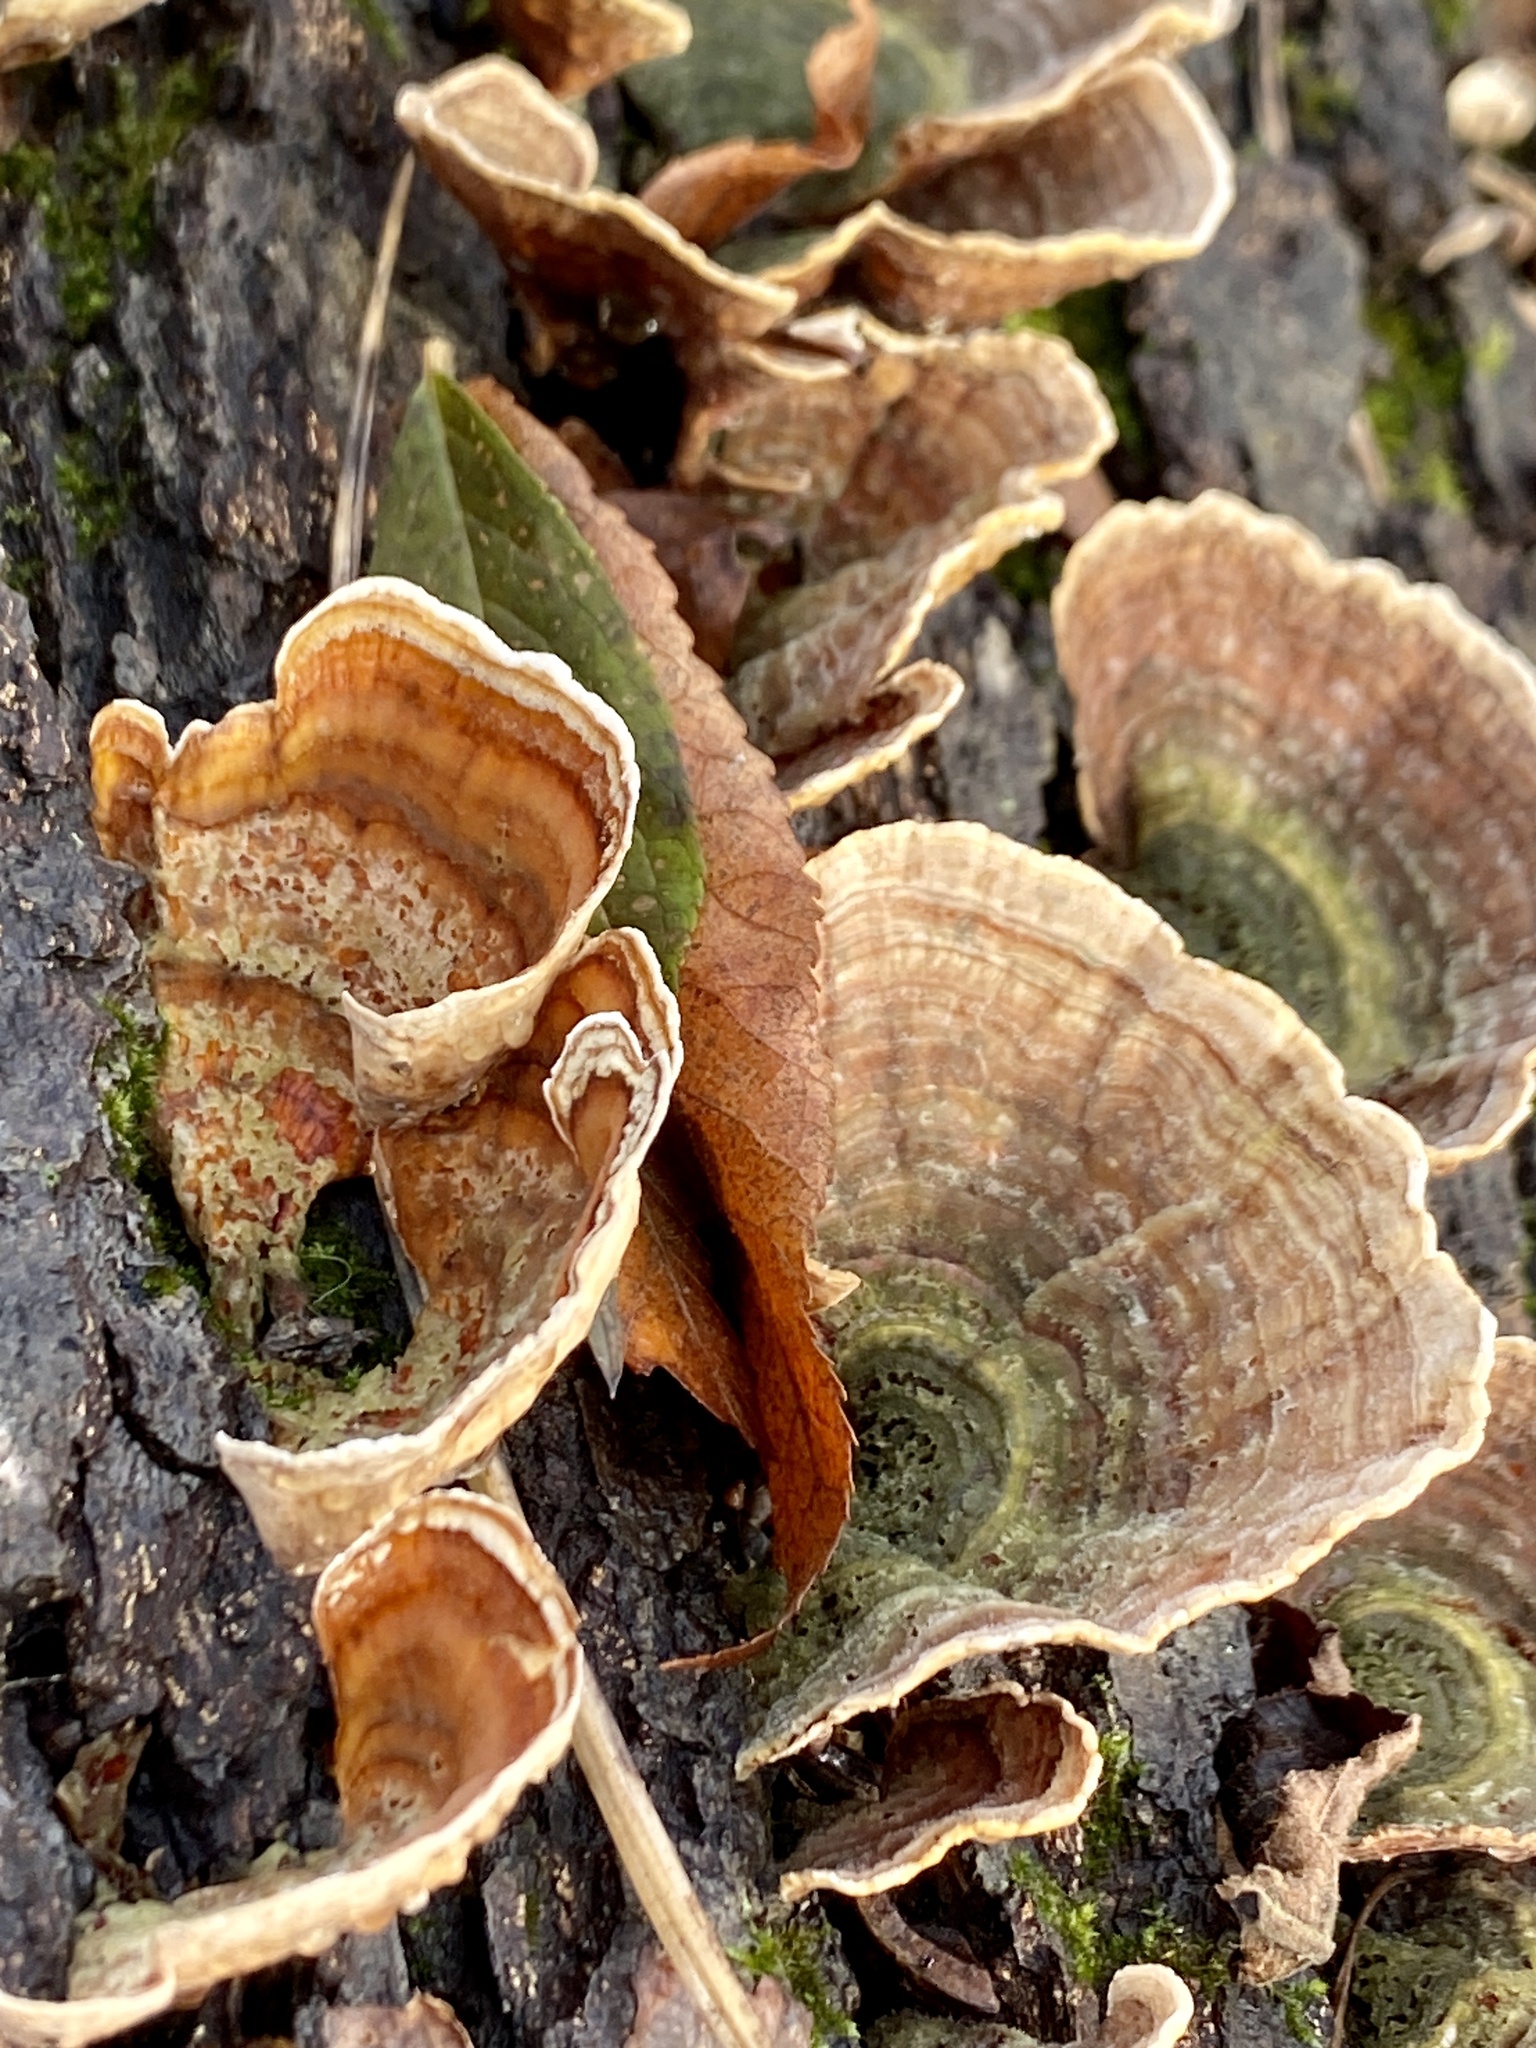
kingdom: Fungi
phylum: Basidiomycota
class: Agaricomycetes
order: Russulales
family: Stereaceae
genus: Stereum
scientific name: Stereum ostrea
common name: False turkeytail
